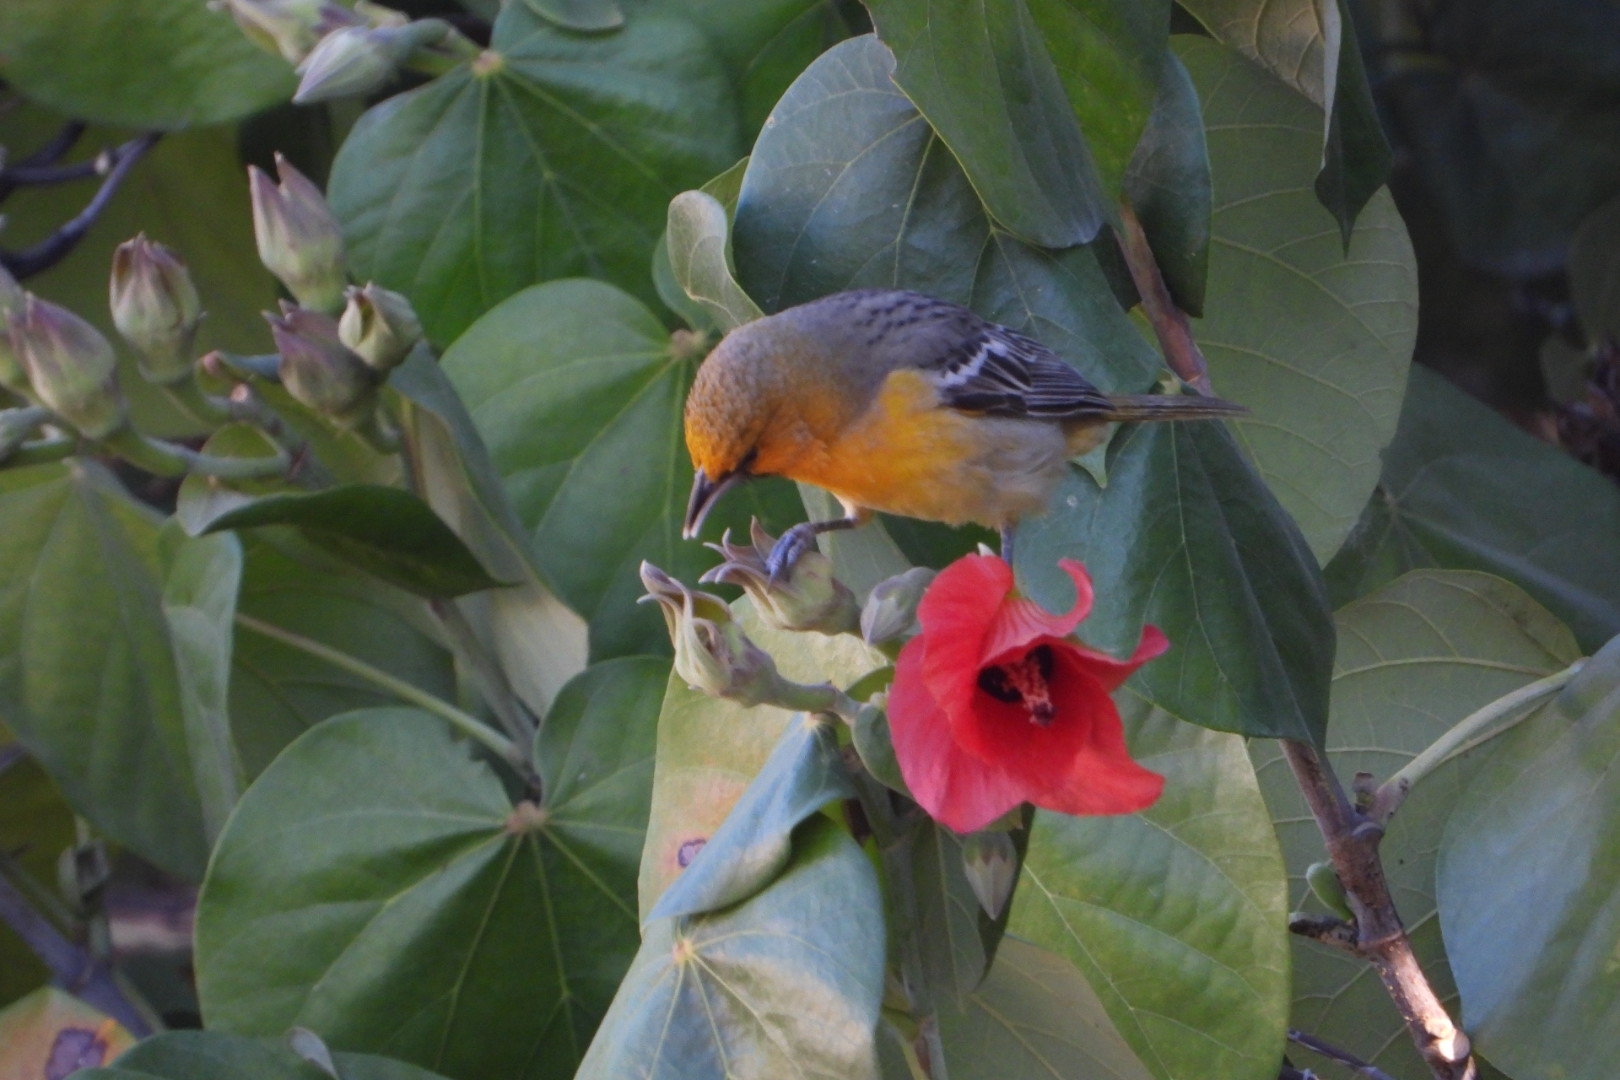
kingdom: Animalia
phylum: Chordata
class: Aves
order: Passeriformes
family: Icteridae
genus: Icterus
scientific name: Icterus pustulatus
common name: Streak-backed oriole
